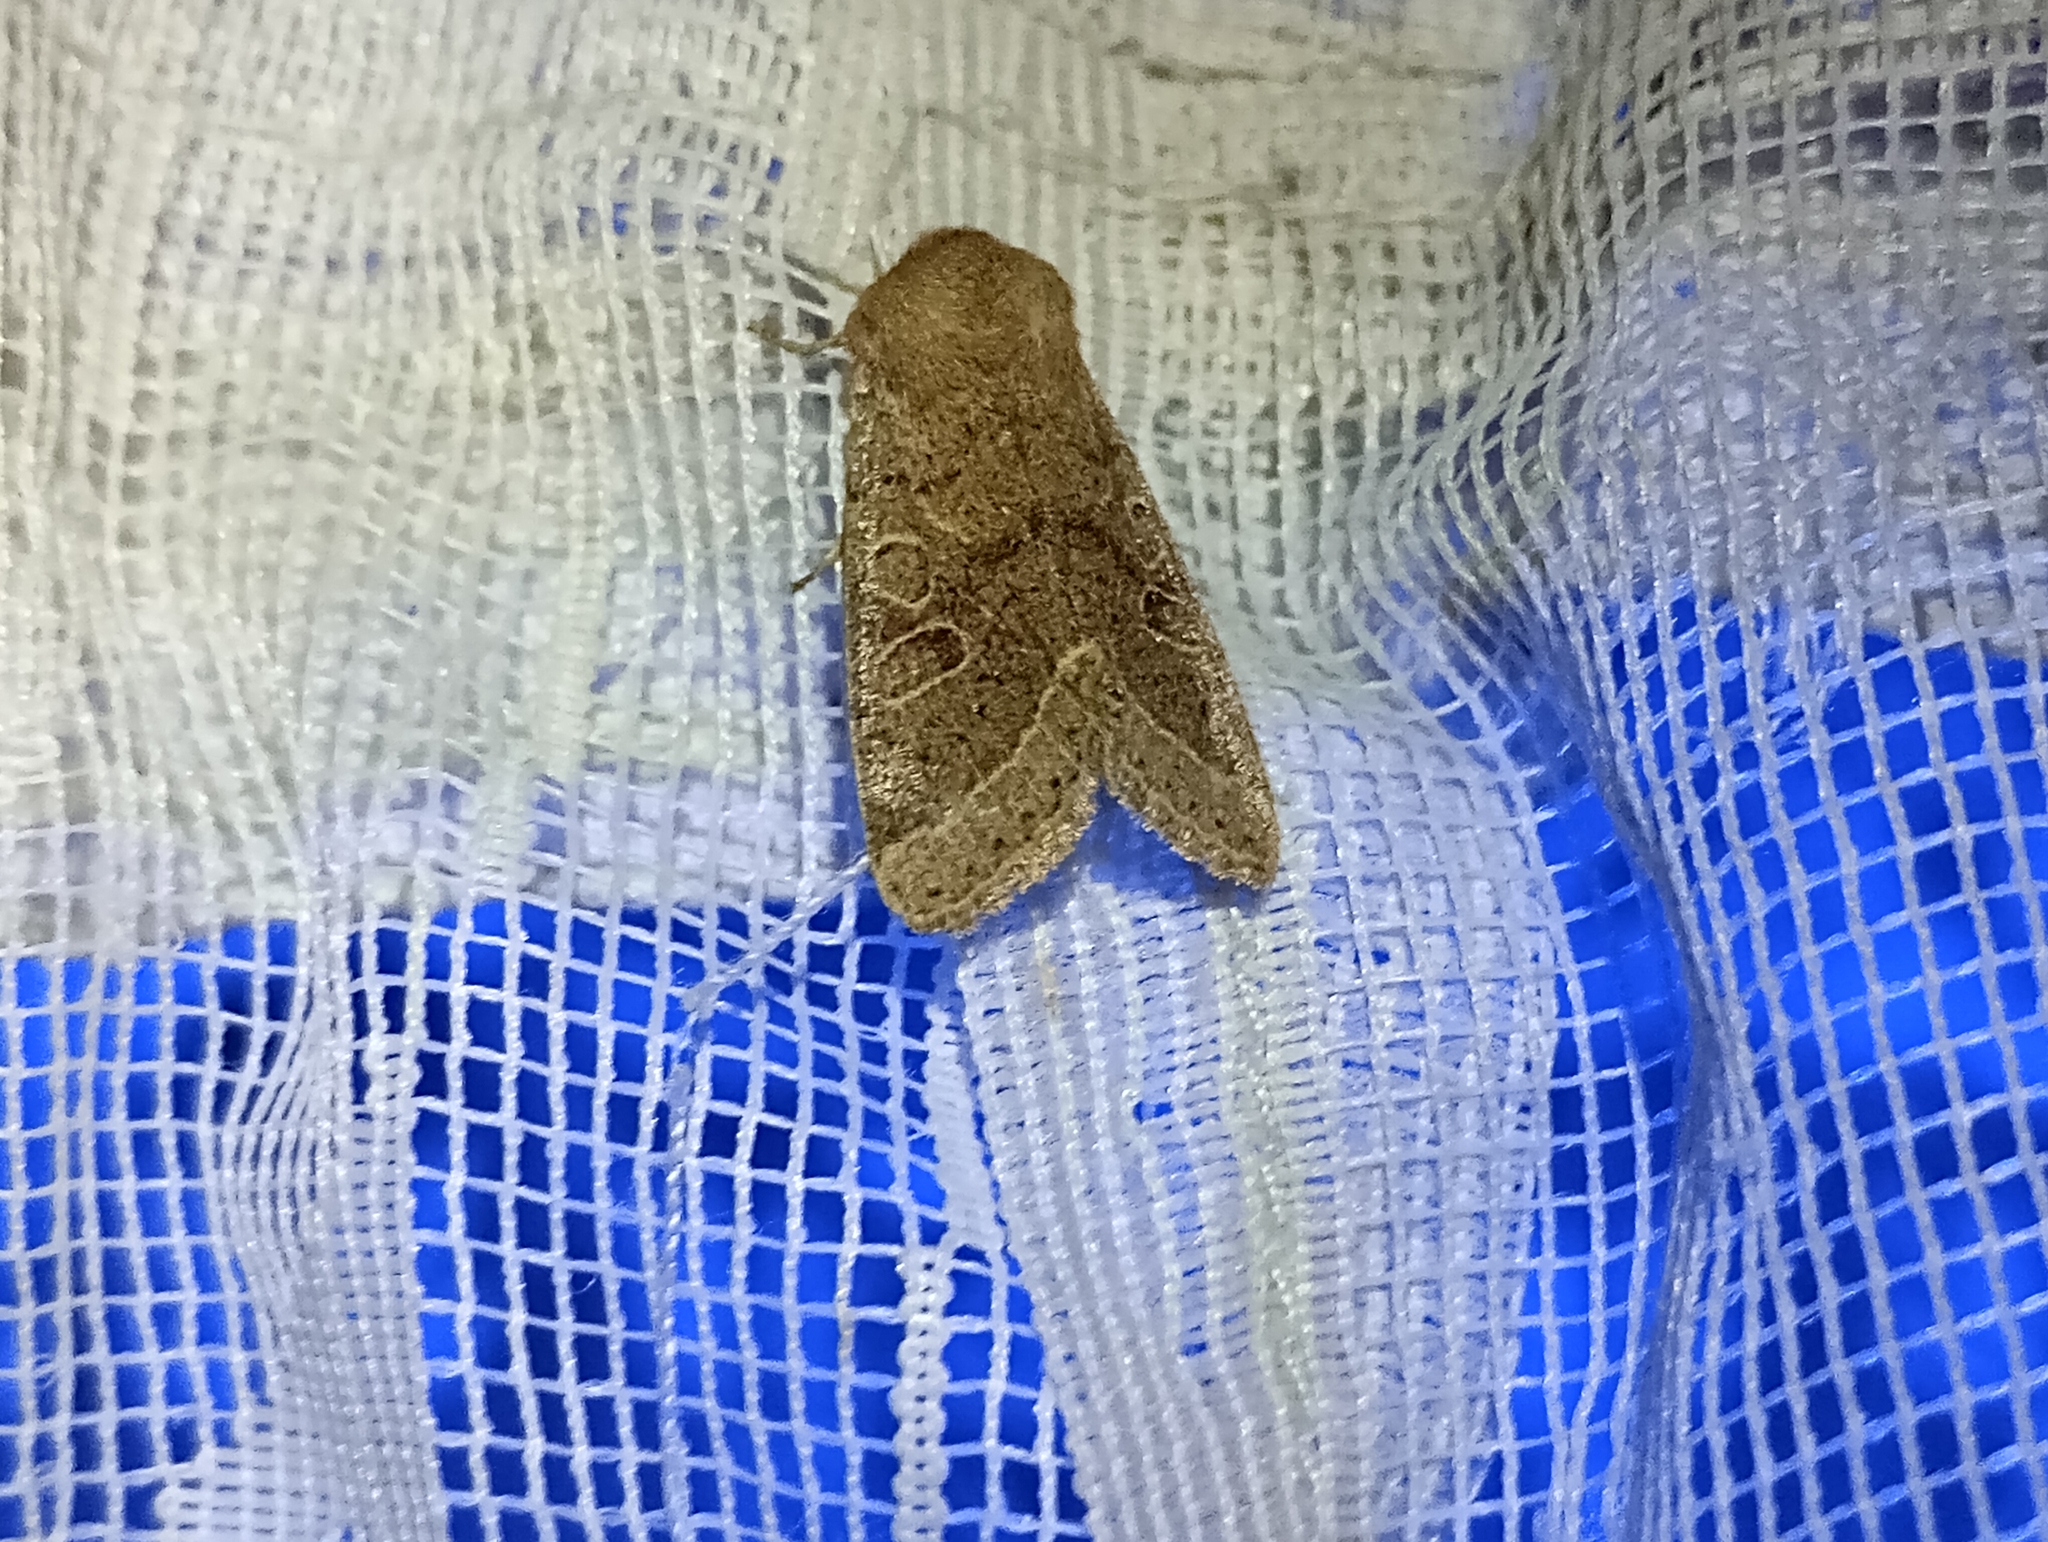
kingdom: Animalia
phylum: Arthropoda
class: Insecta
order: Lepidoptera
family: Noctuidae
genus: Orthosia
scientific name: Orthosia cerasi
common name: Common quaker
